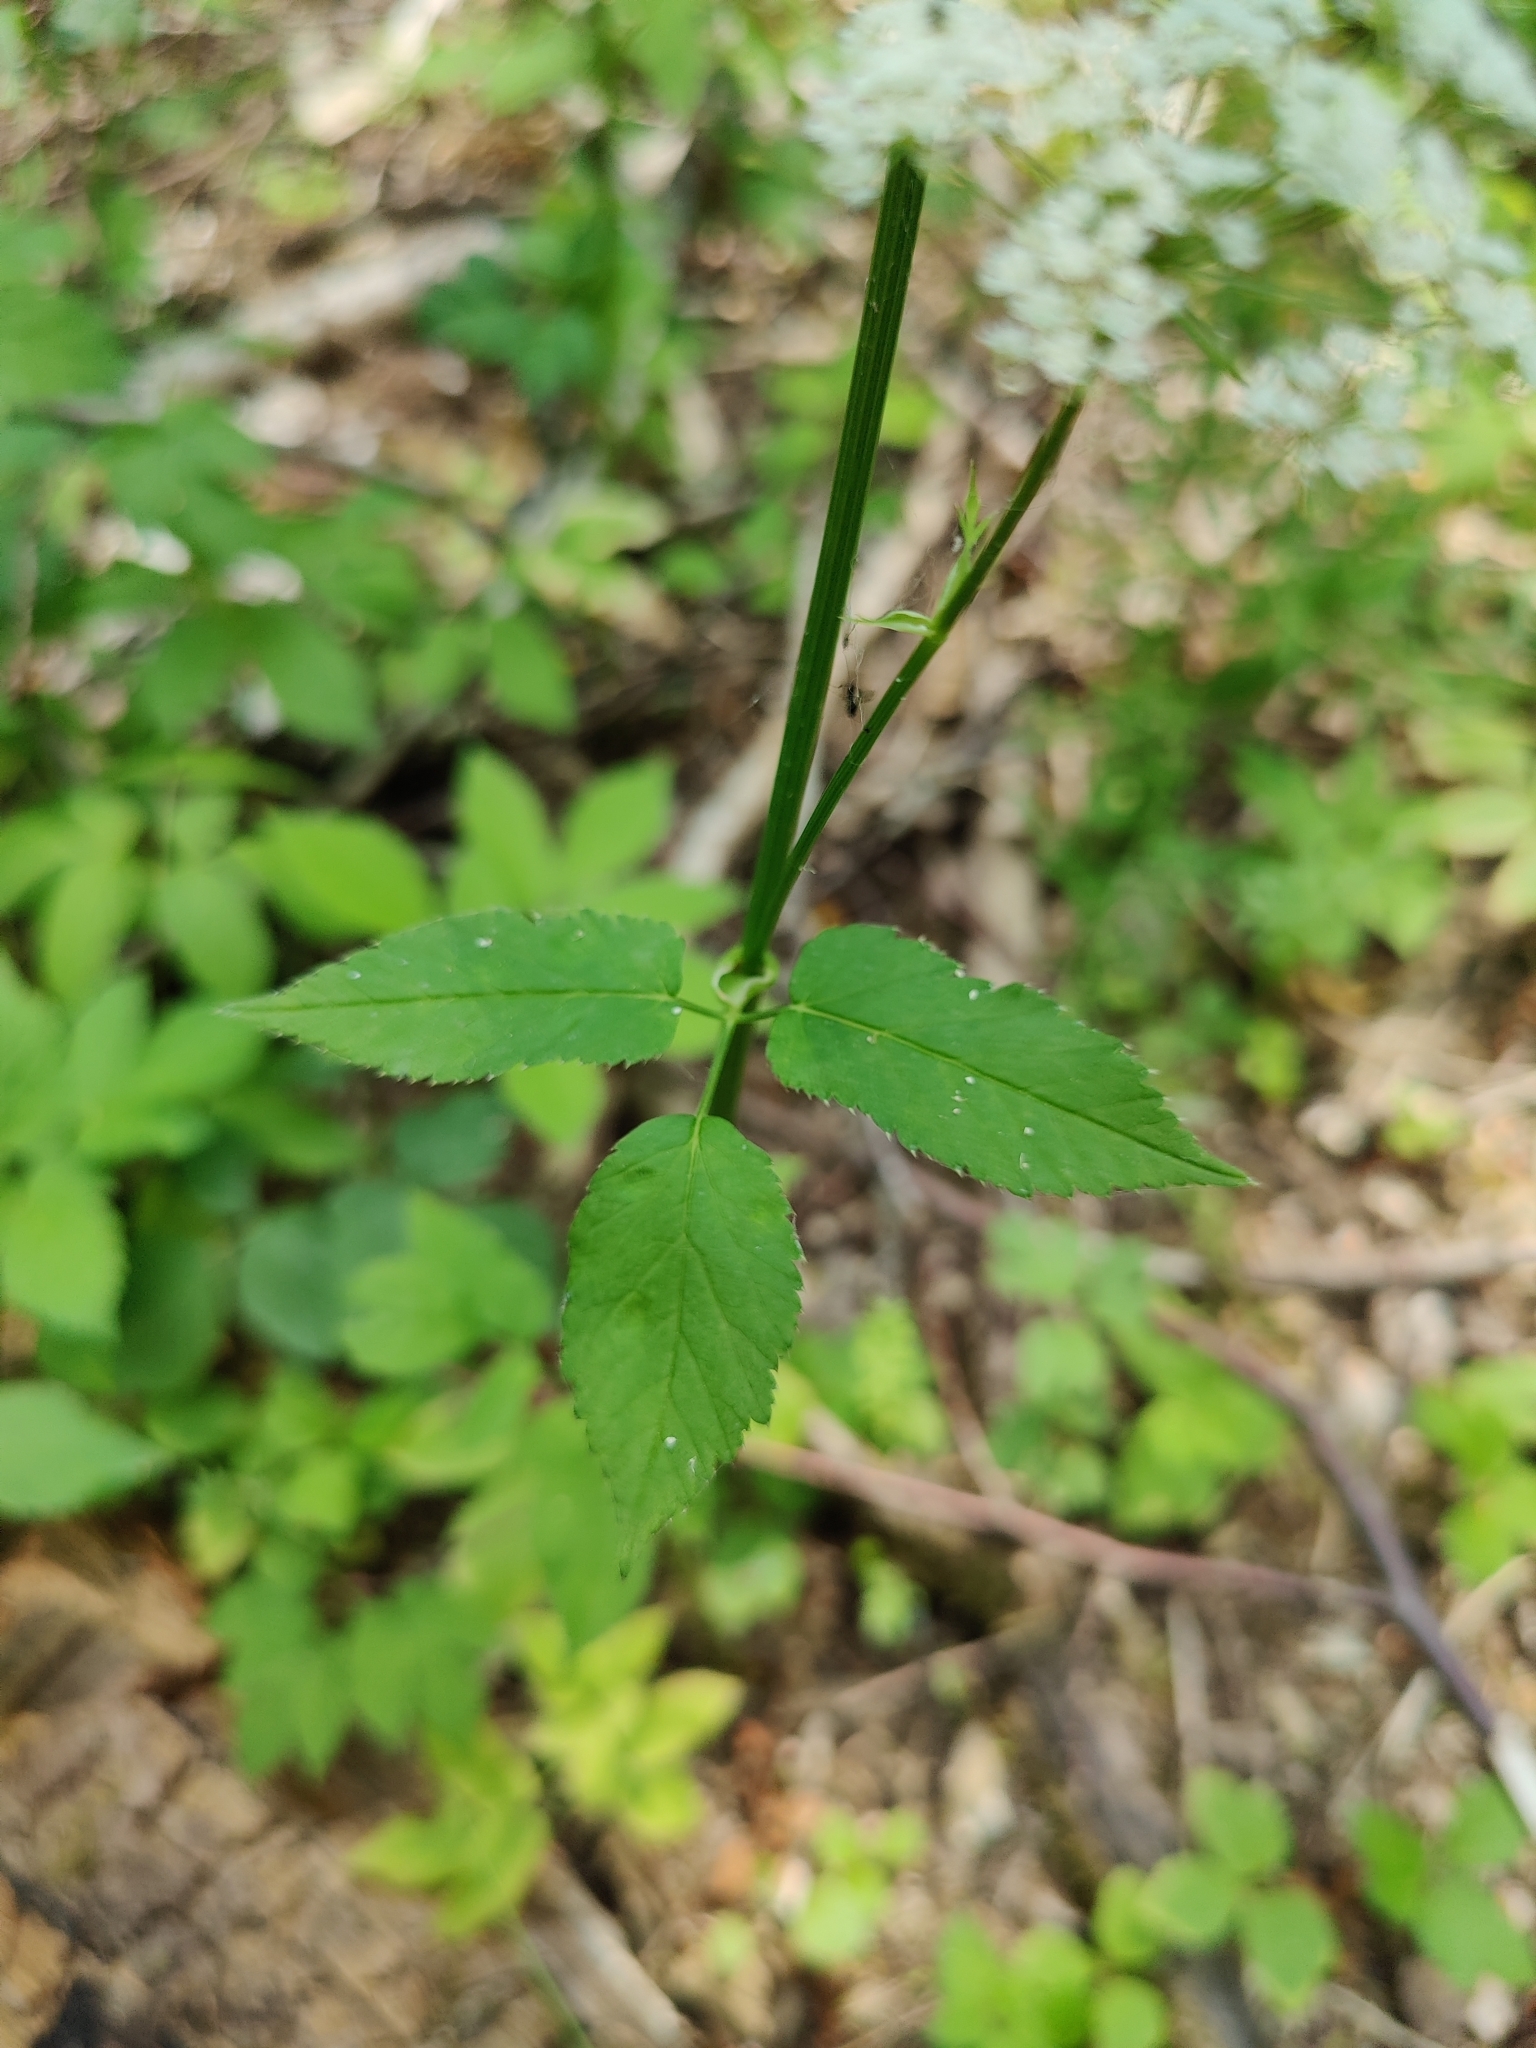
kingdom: Plantae
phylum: Tracheophyta
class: Magnoliopsida
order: Apiales
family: Apiaceae
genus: Aegopodium
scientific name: Aegopodium podagraria
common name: Ground-elder
